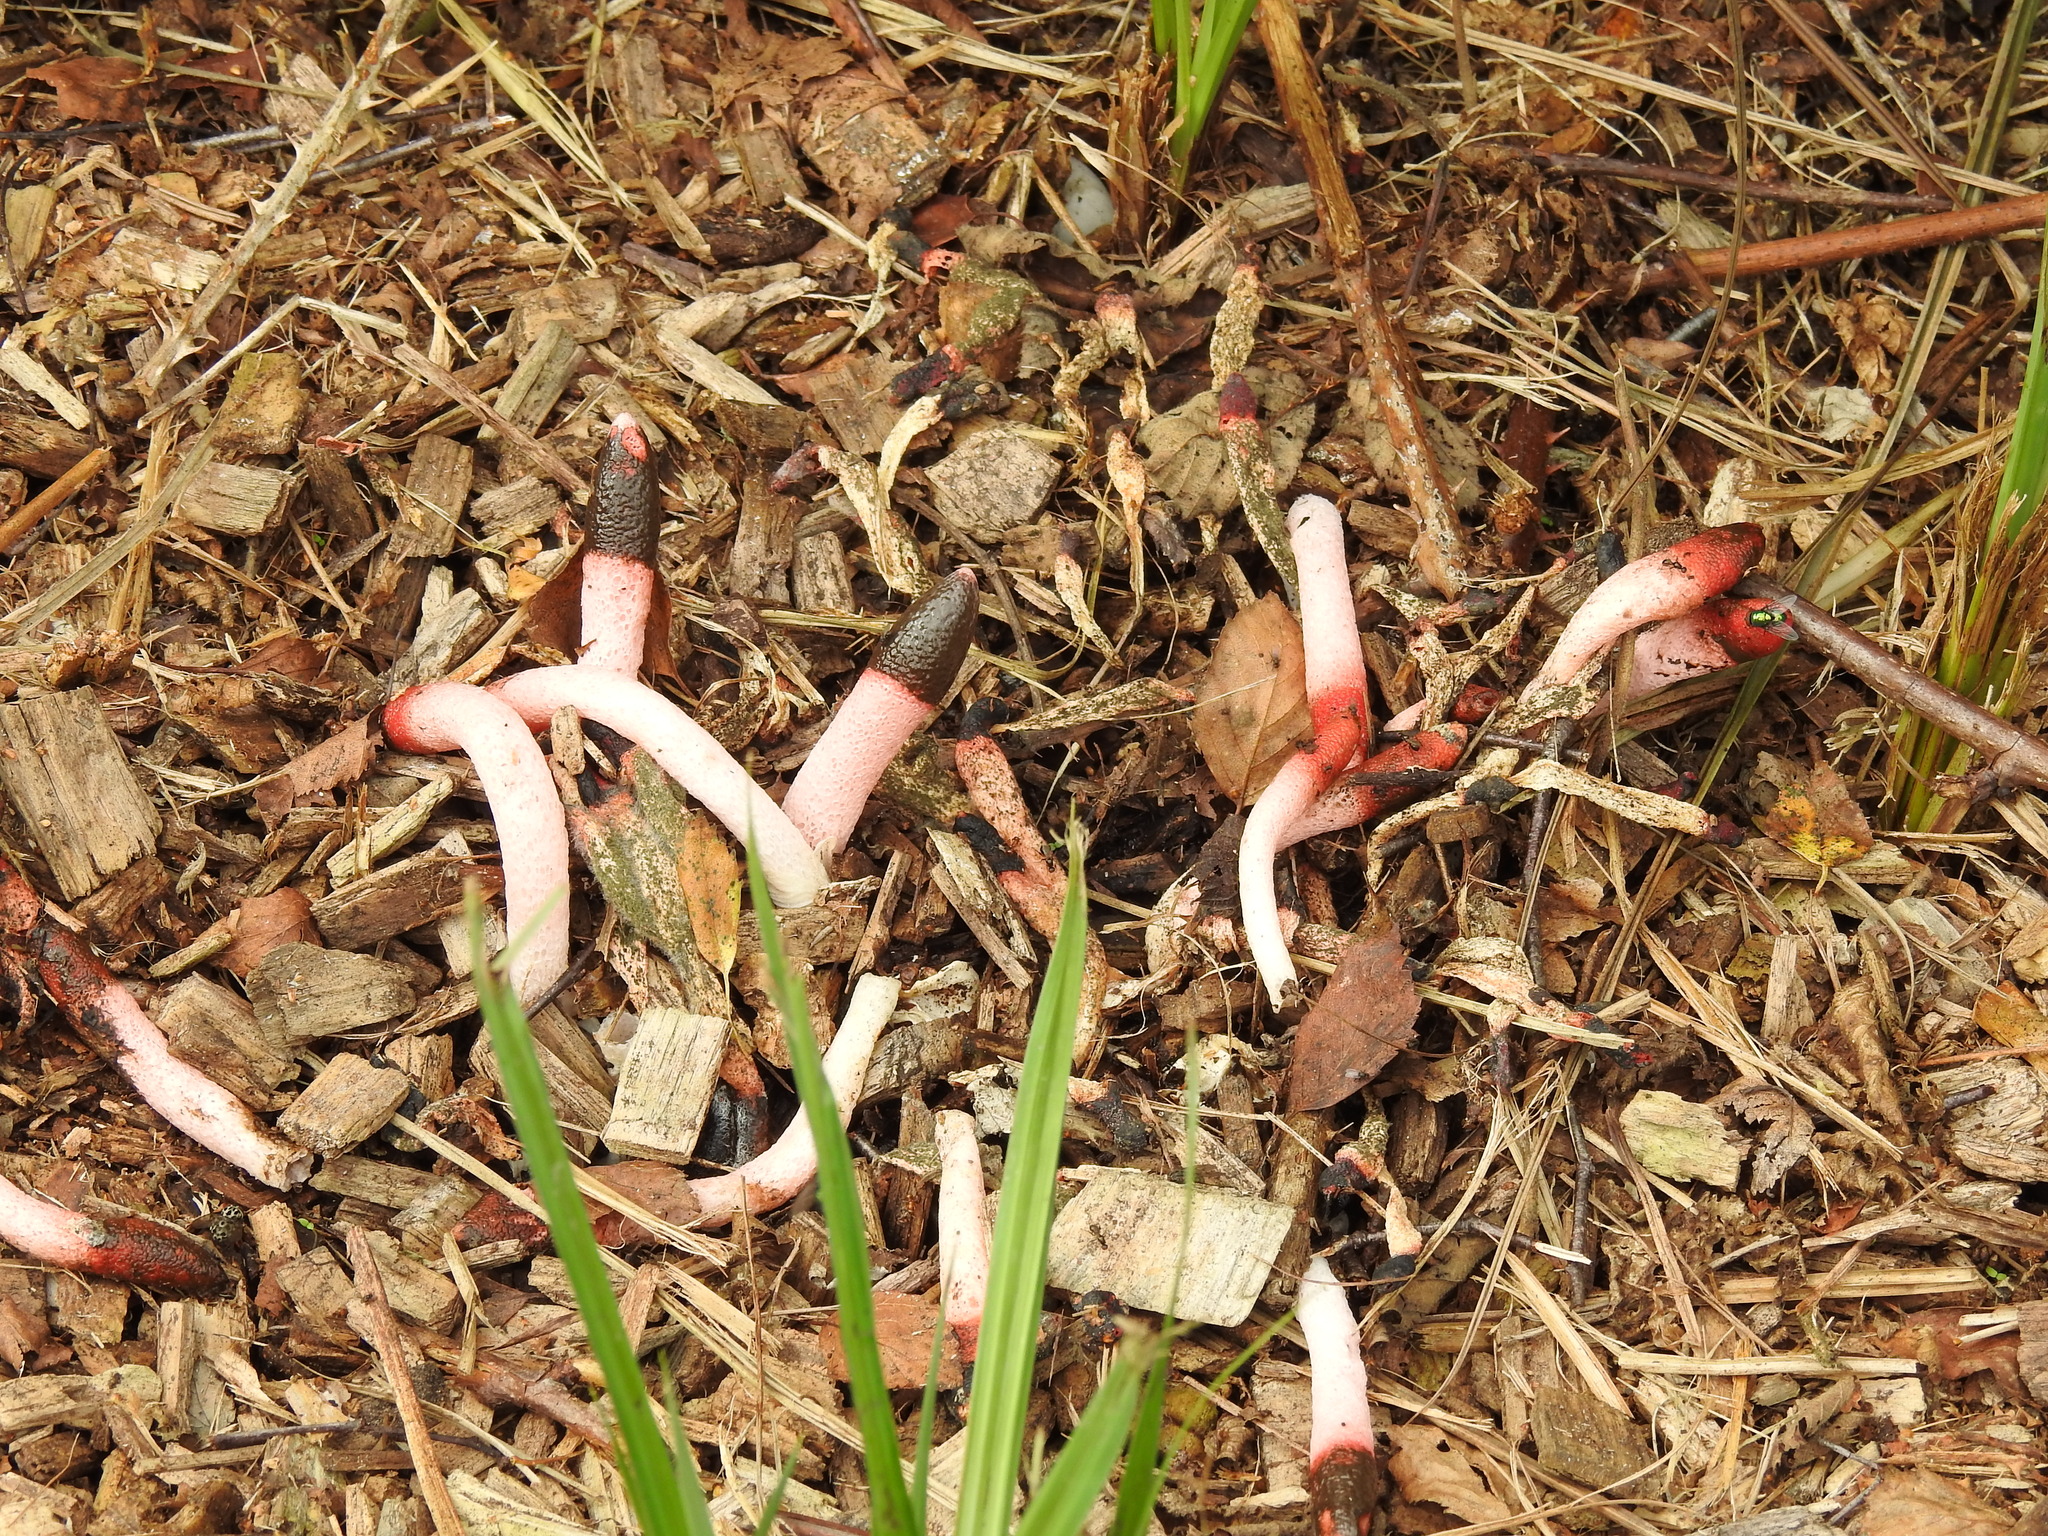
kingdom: Fungi
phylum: Basidiomycota
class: Agaricomycetes
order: Phallales
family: Phallaceae
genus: Mutinus
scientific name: Mutinus ravenelii
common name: Red stinkhorn
